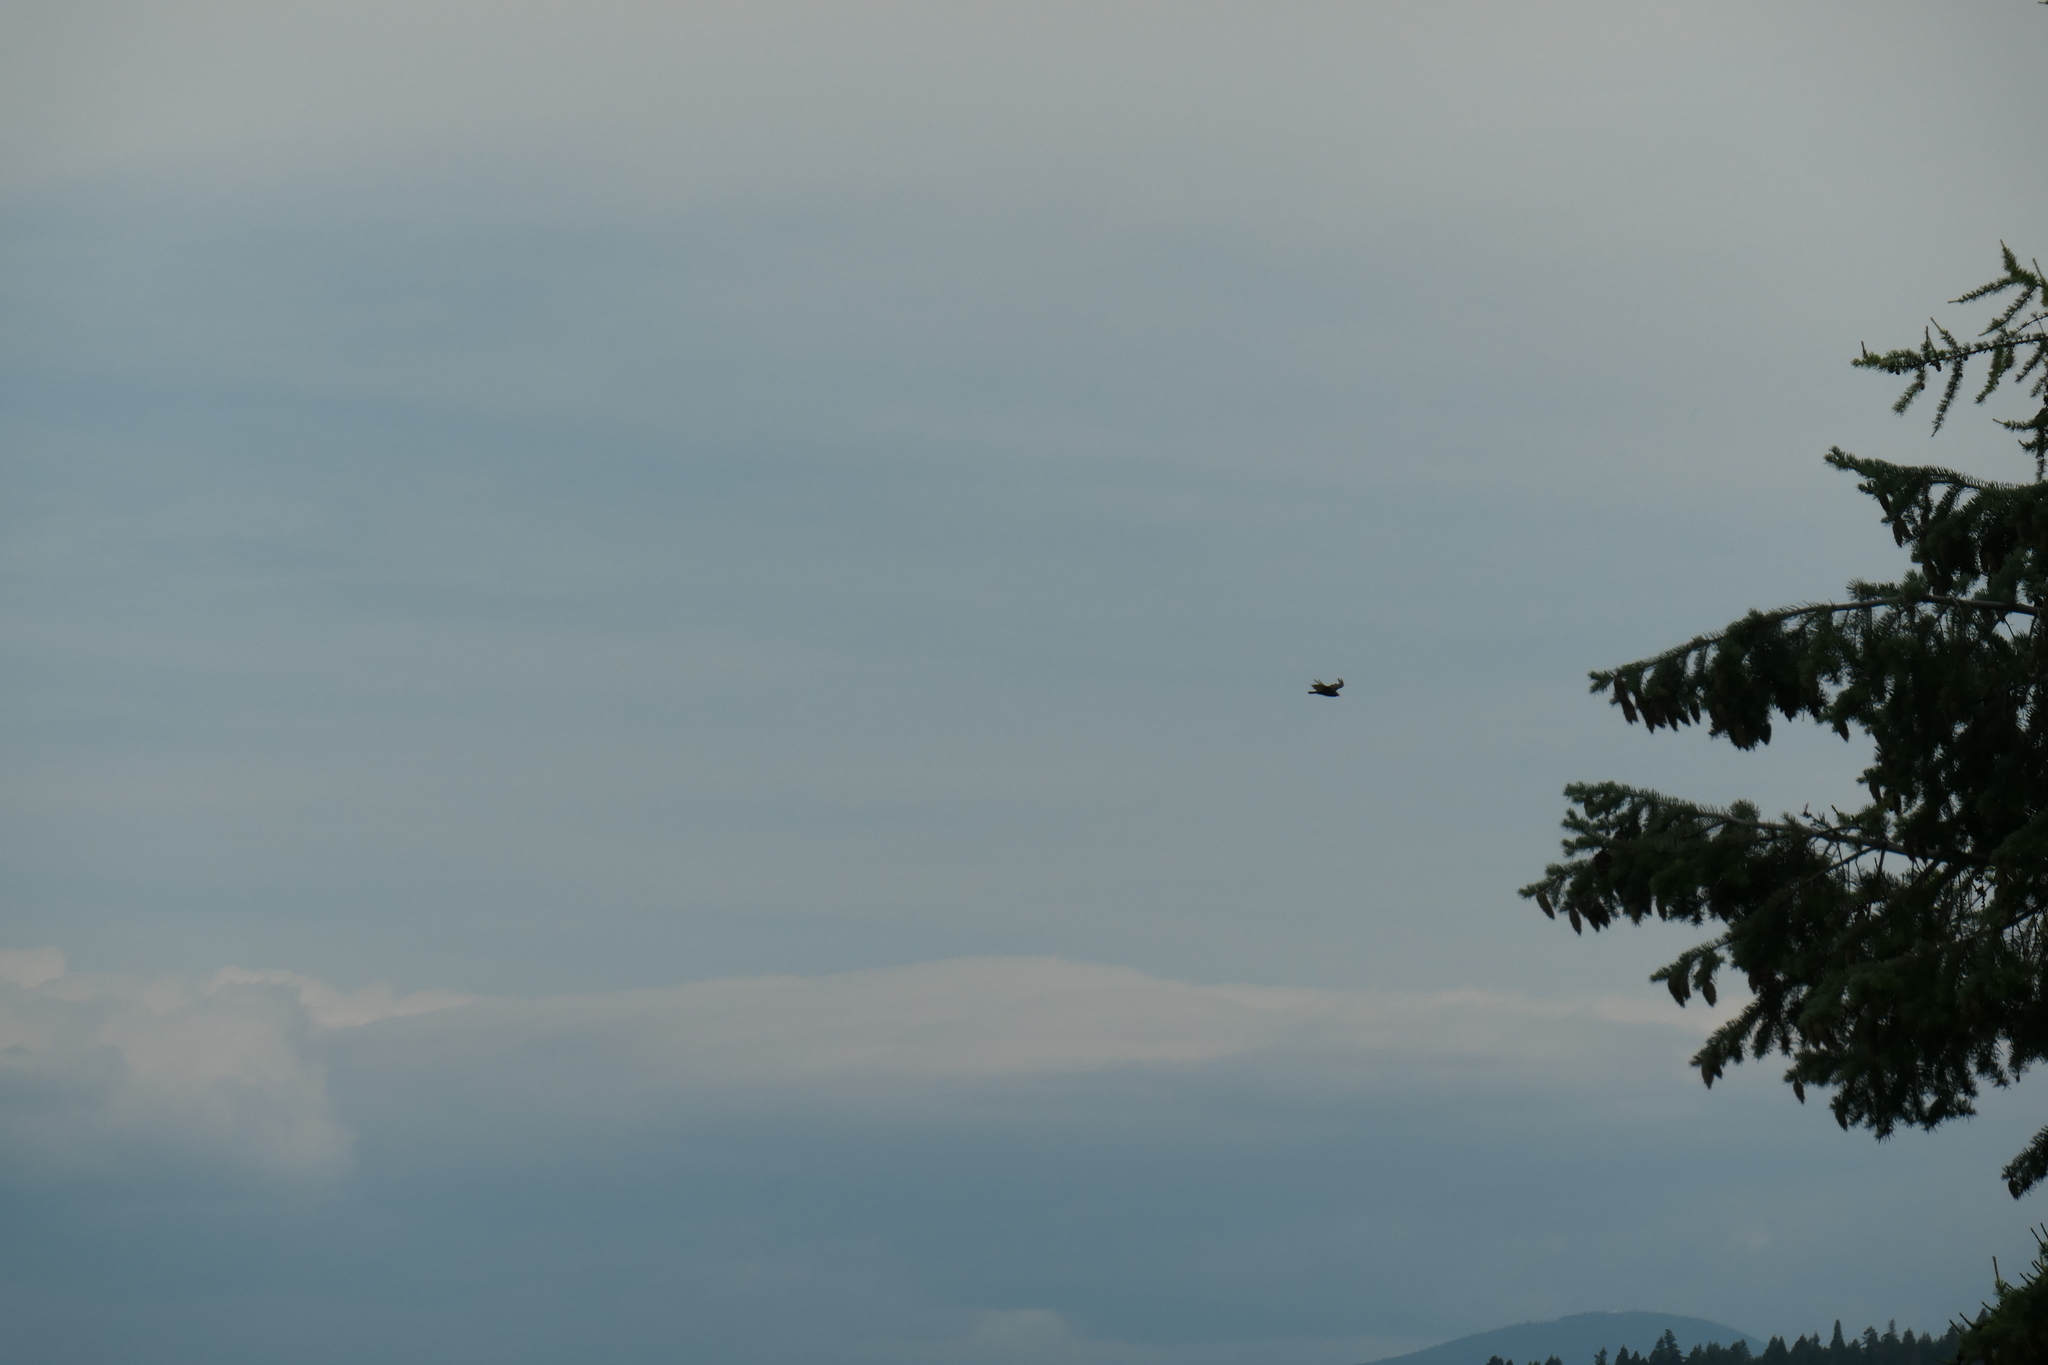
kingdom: Animalia
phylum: Chordata
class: Aves
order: Accipitriformes
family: Cathartidae
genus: Cathartes
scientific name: Cathartes aura
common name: Turkey vulture
